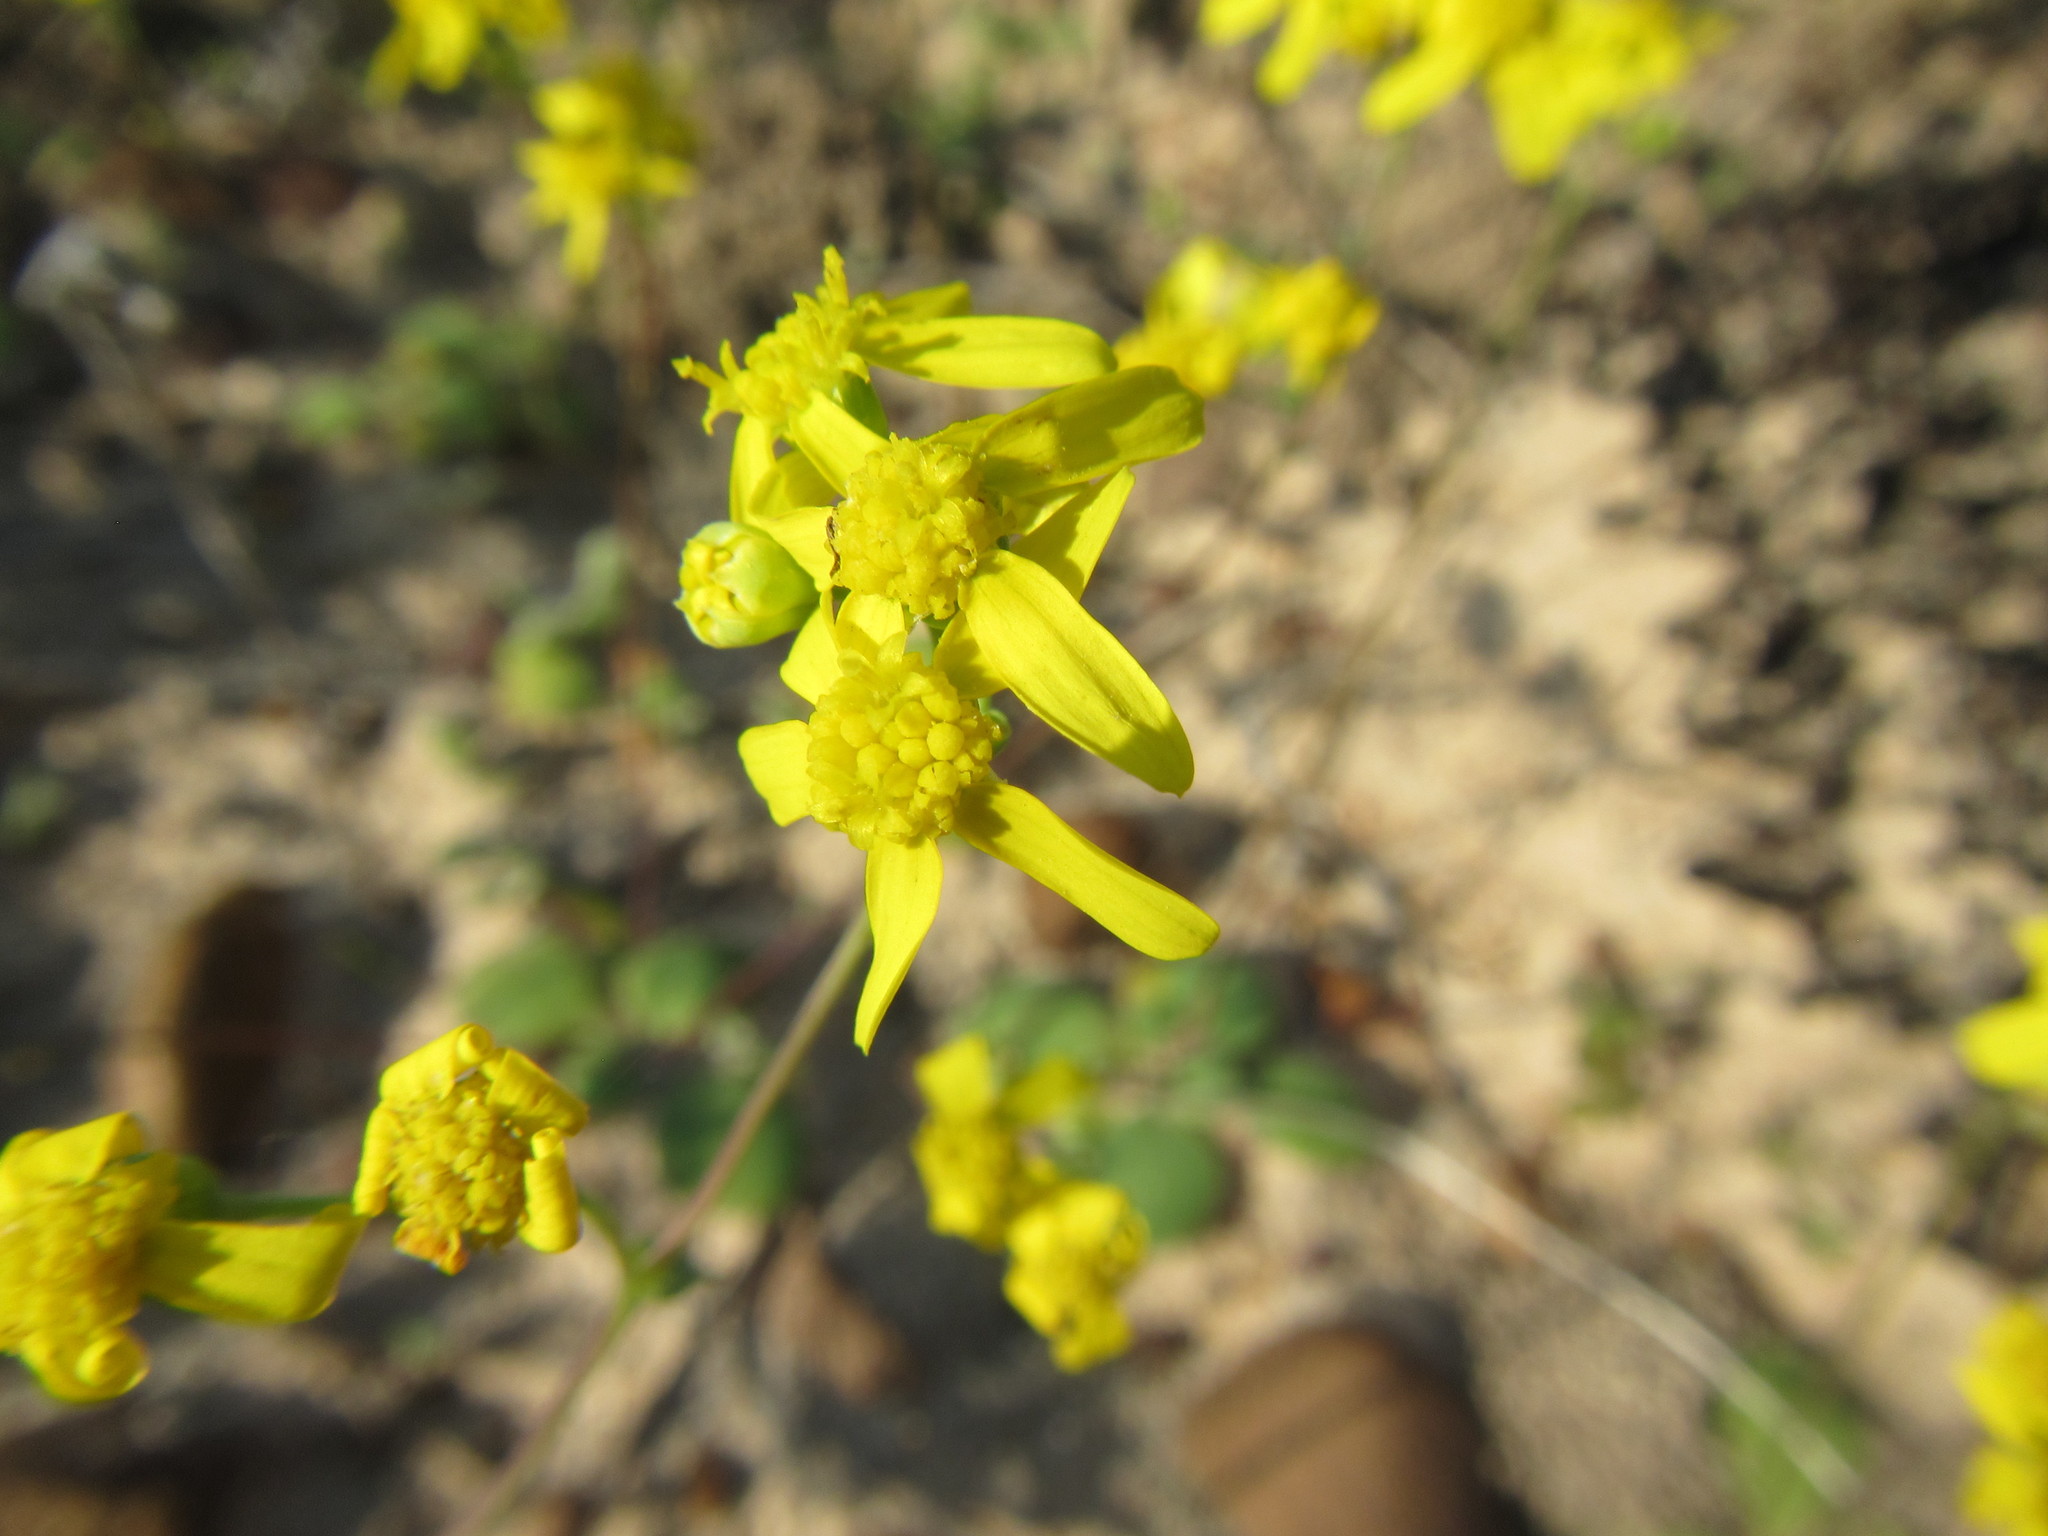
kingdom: Plantae
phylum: Tracheophyta
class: Magnoliopsida
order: Asterales
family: Asteraceae
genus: Gymnodiscus
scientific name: Gymnodiscus capillaris
